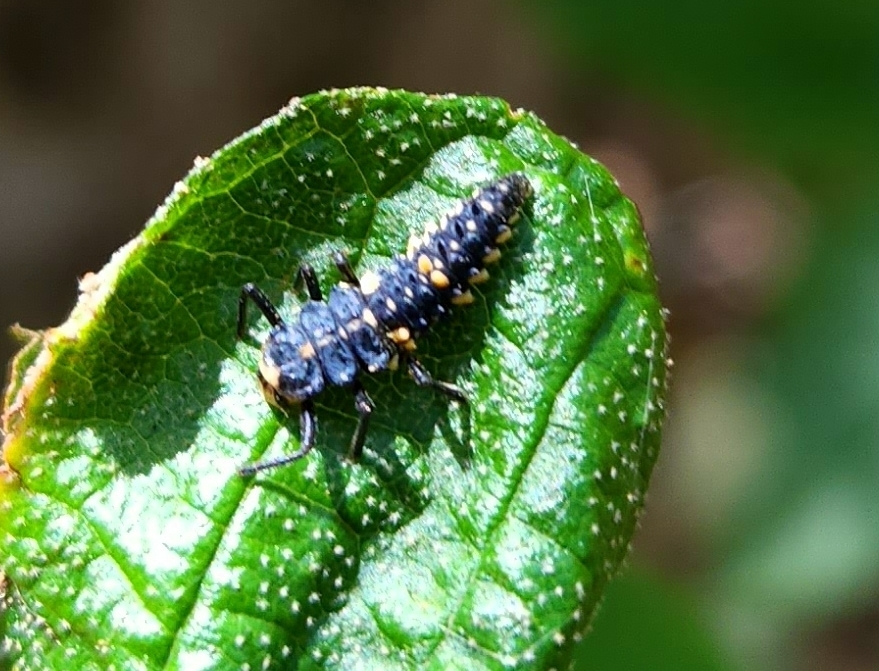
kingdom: Animalia
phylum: Arthropoda
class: Insecta
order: Coleoptera
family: Coccinellidae
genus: Cleobora
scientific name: Cleobora
